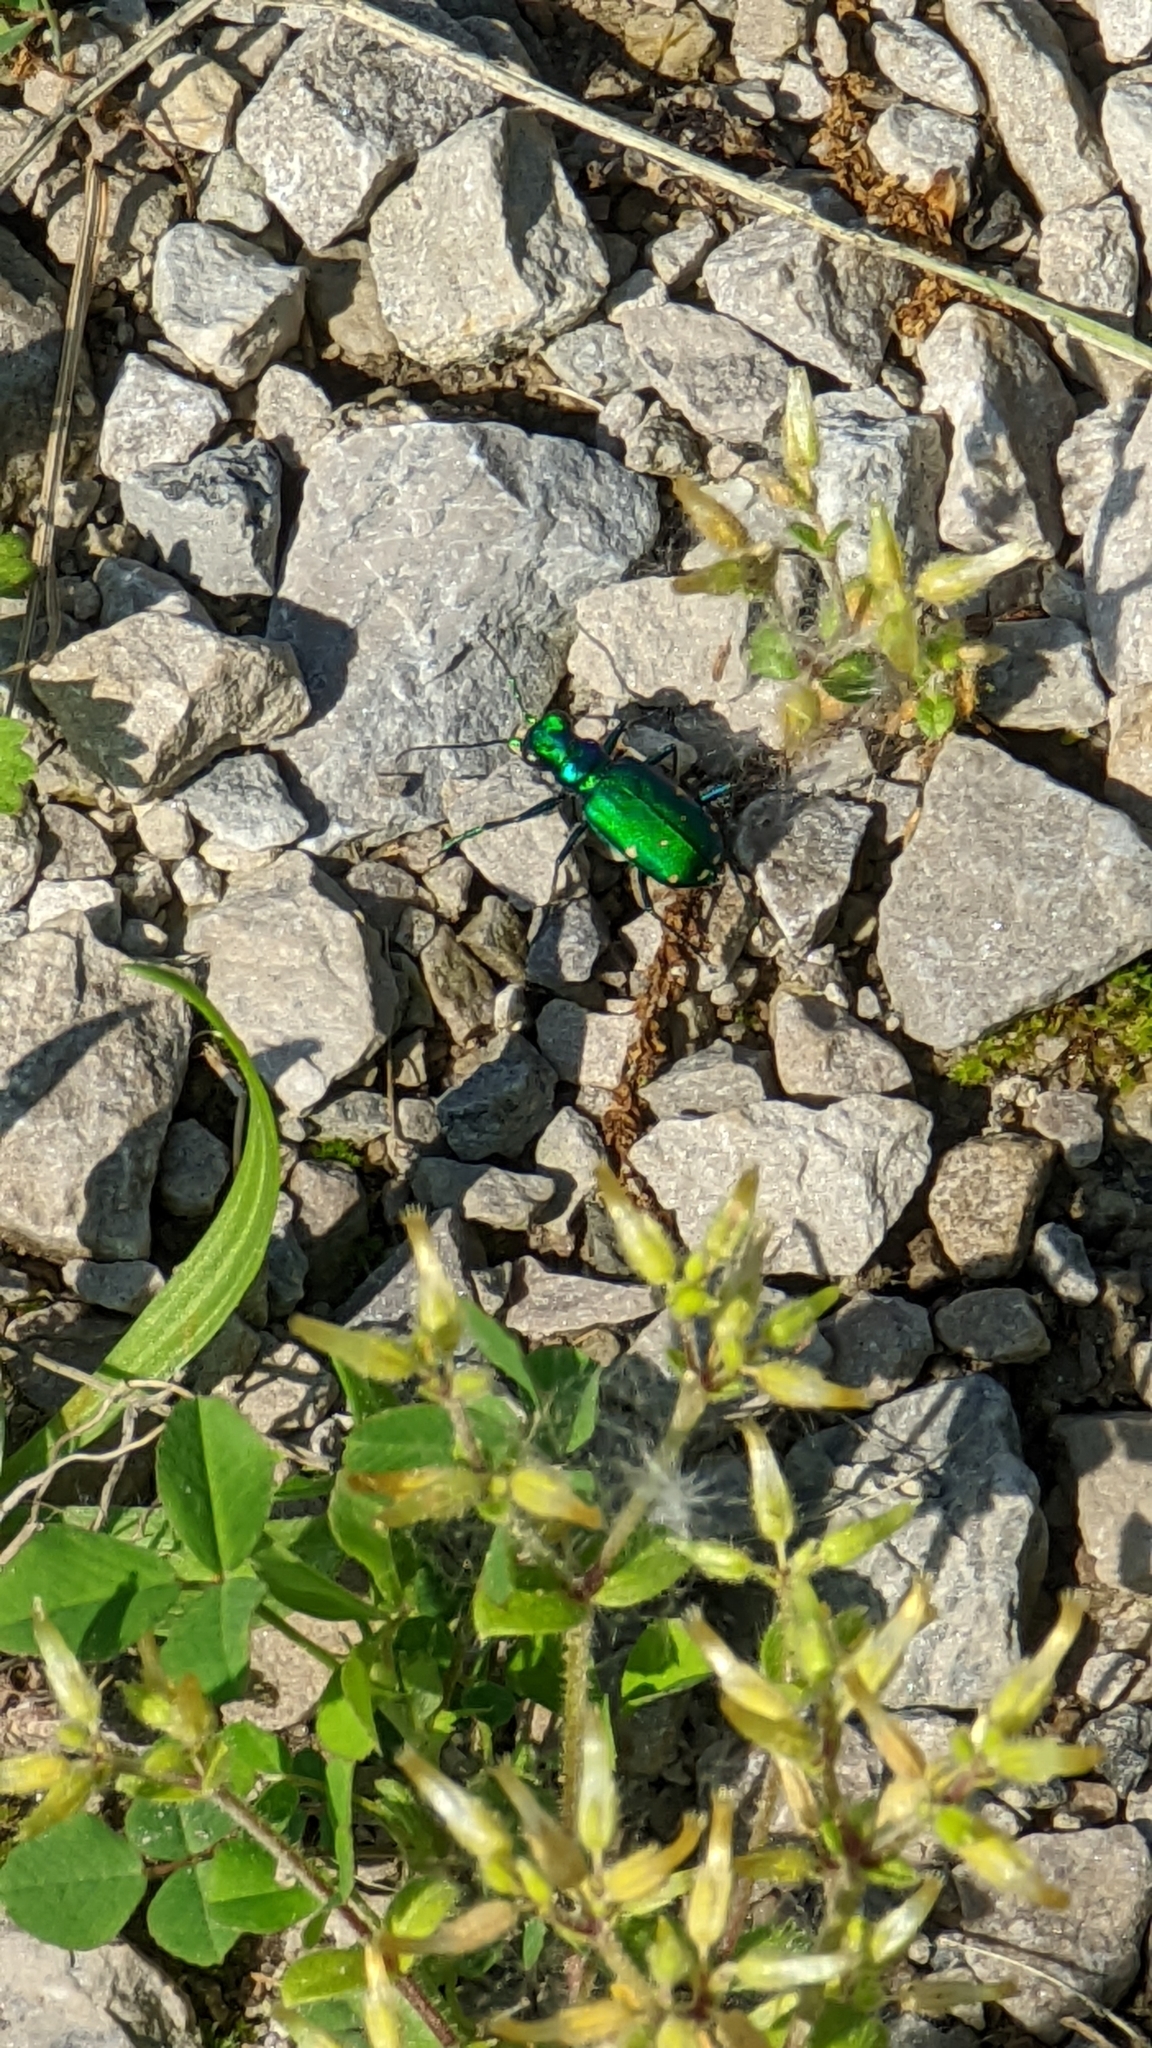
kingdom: Animalia
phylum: Arthropoda
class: Insecta
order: Coleoptera
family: Carabidae
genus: Cicindela
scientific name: Cicindela sexguttata
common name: Six-spotted tiger beetle
